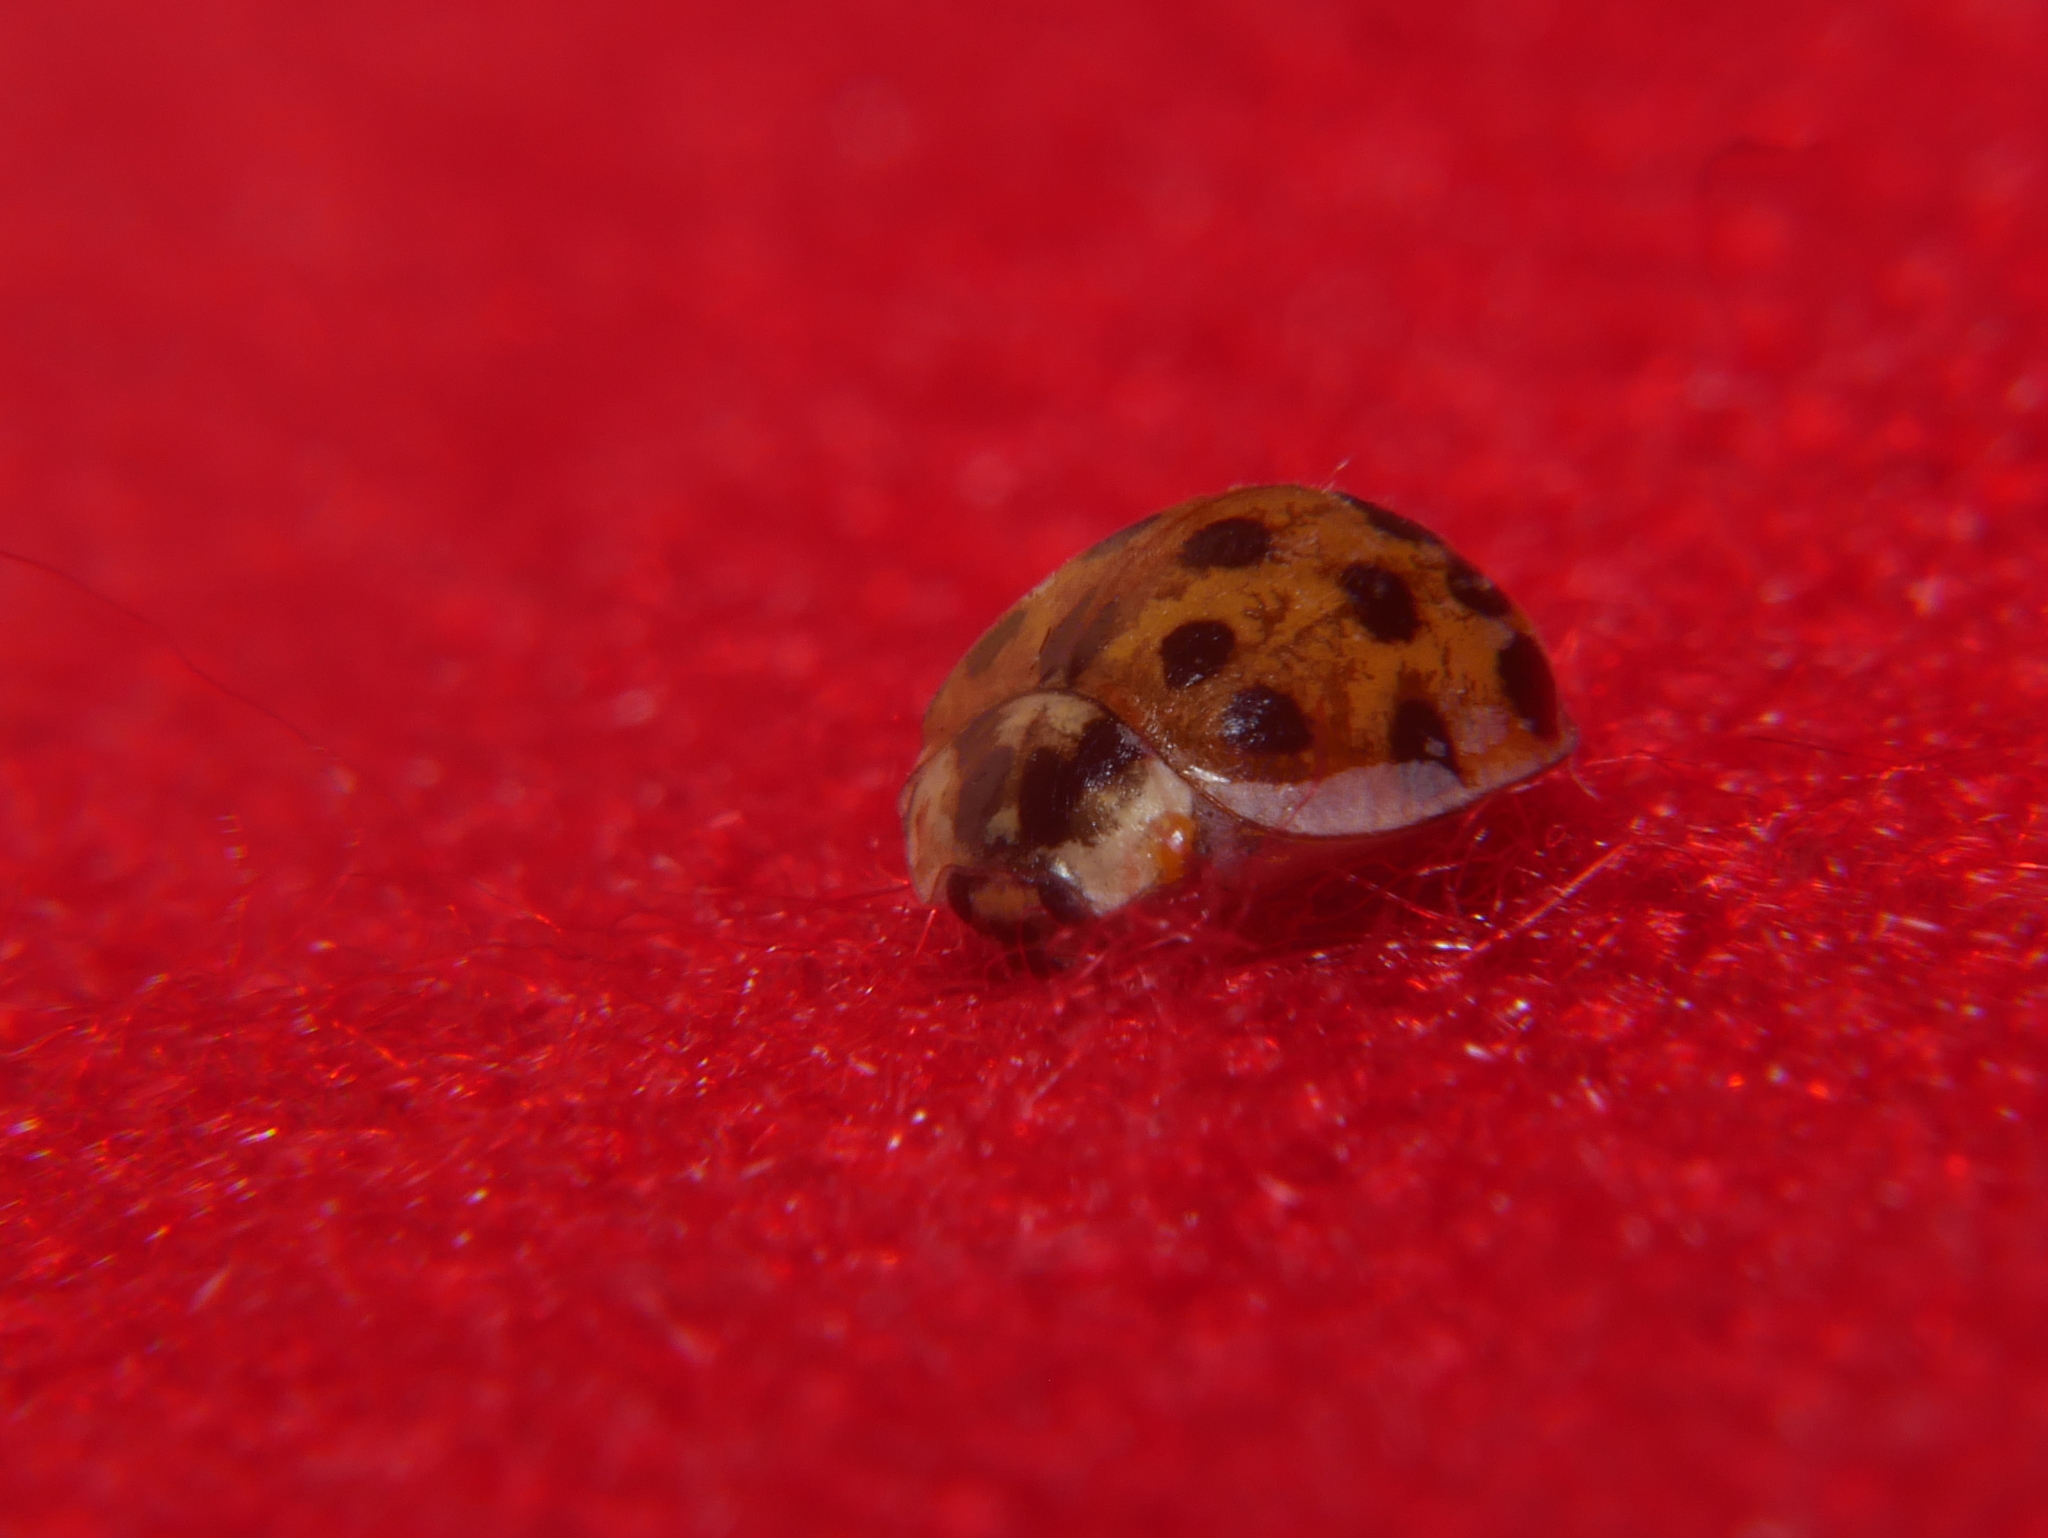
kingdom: Animalia
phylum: Arthropoda
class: Insecta
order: Coleoptera
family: Coccinellidae
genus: Harmonia
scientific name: Harmonia axyridis
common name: Harlequin ladybird
